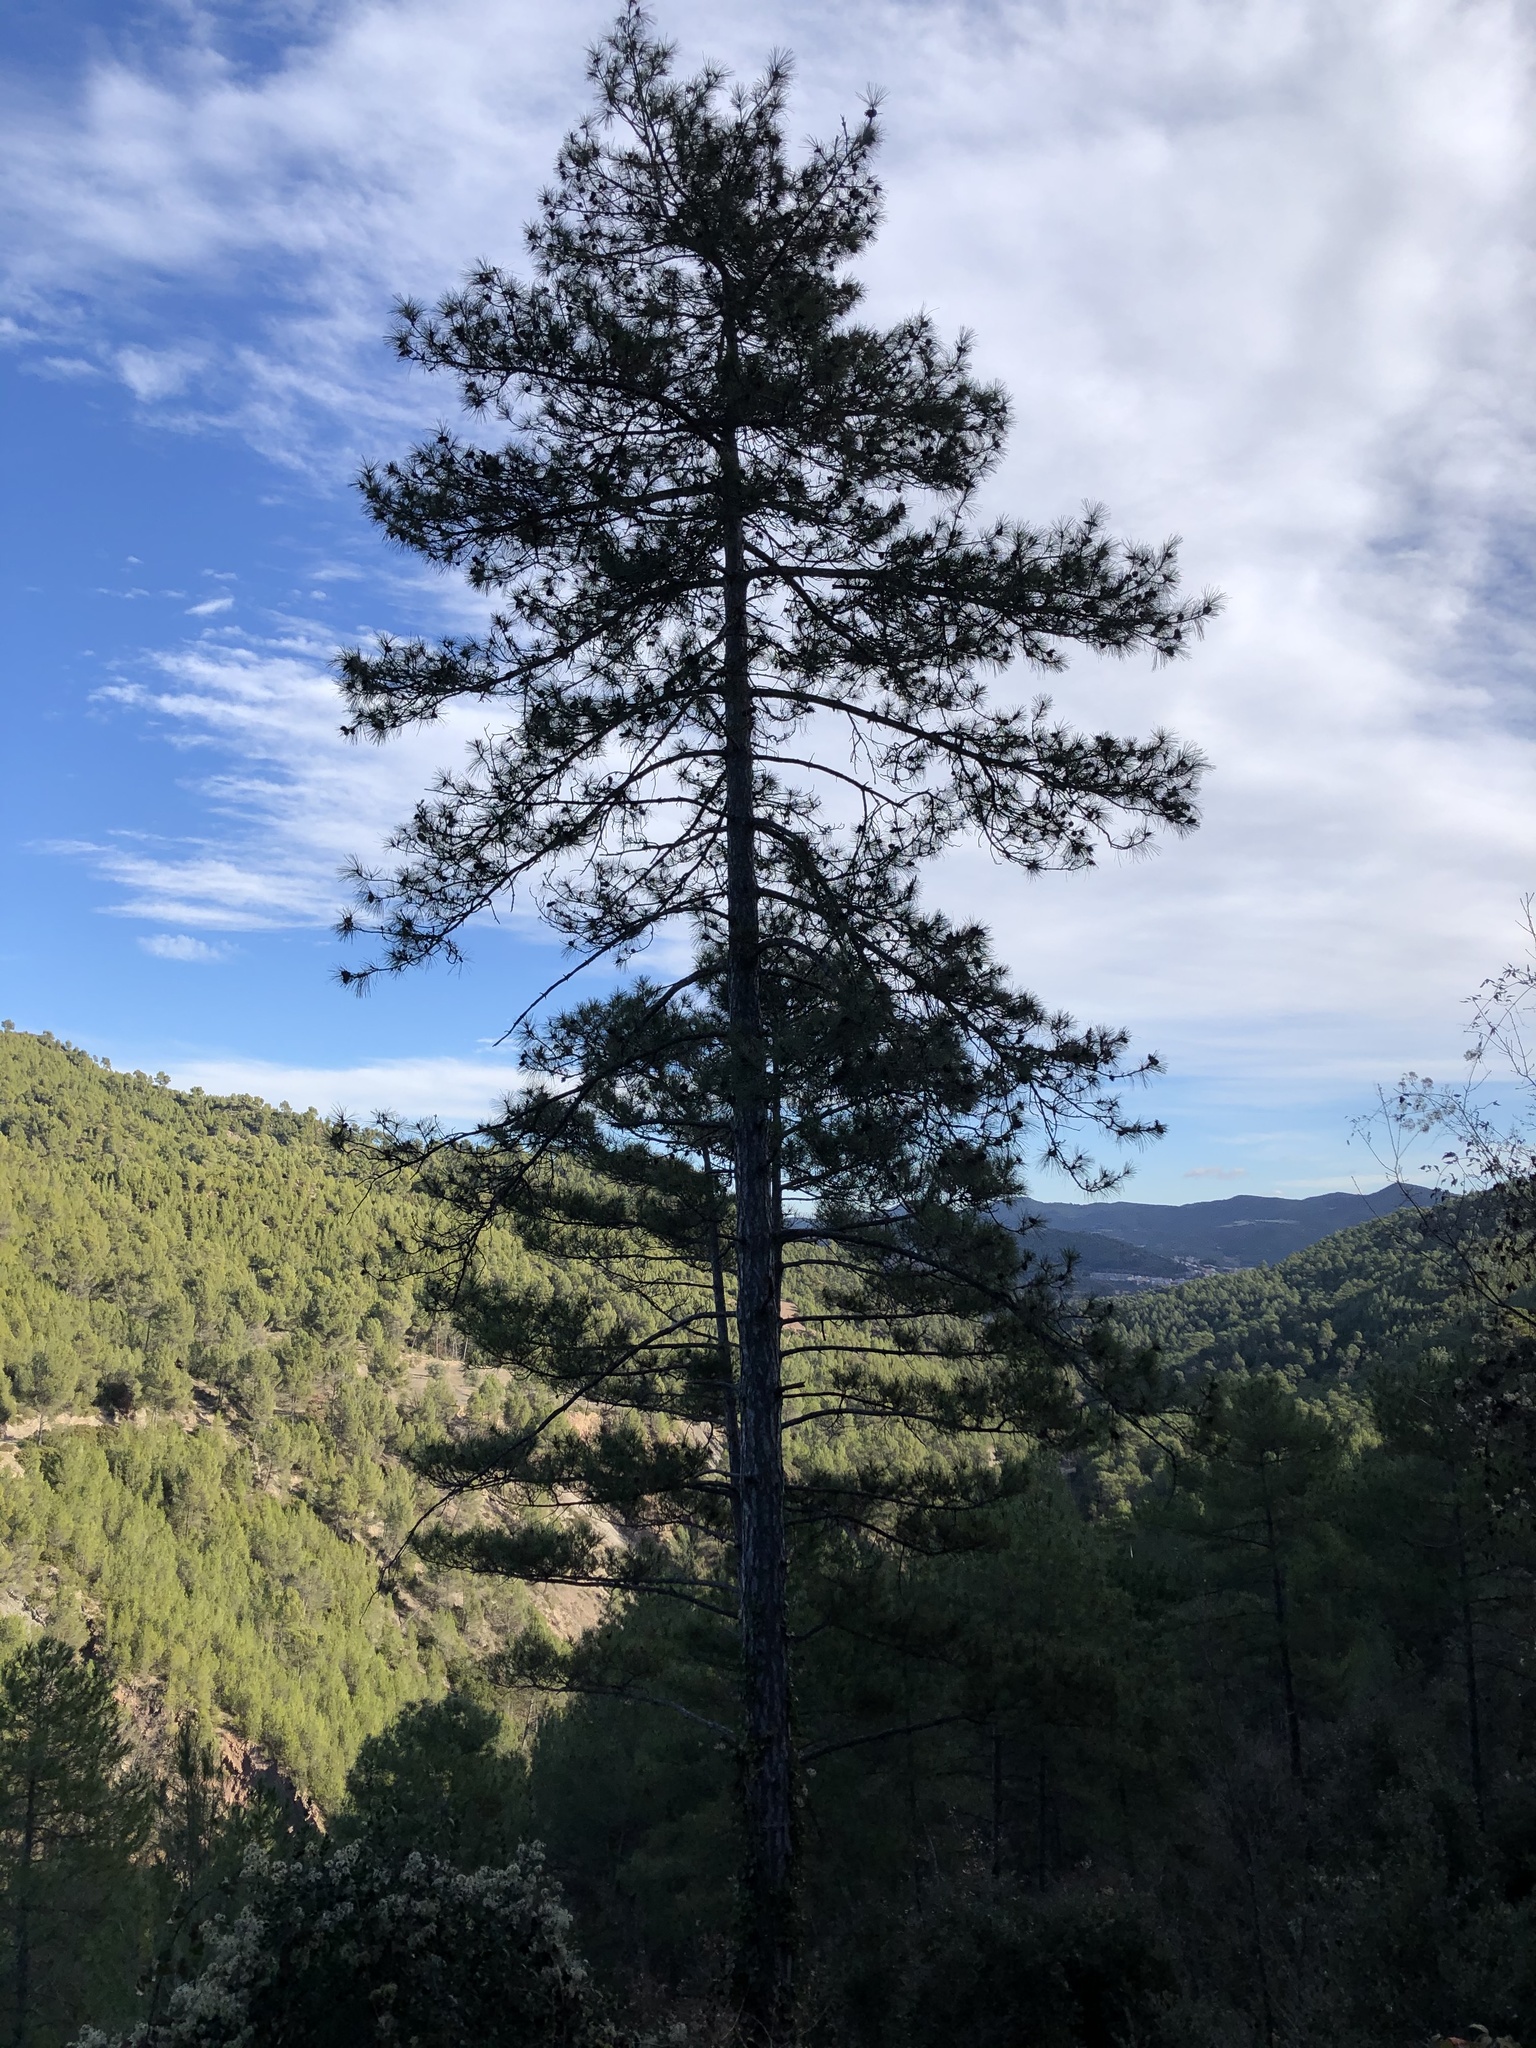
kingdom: Plantae
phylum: Tracheophyta
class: Pinopsida
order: Pinales
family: Pinaceae
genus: Pinus
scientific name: Pinus nigra
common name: Austrian pine
